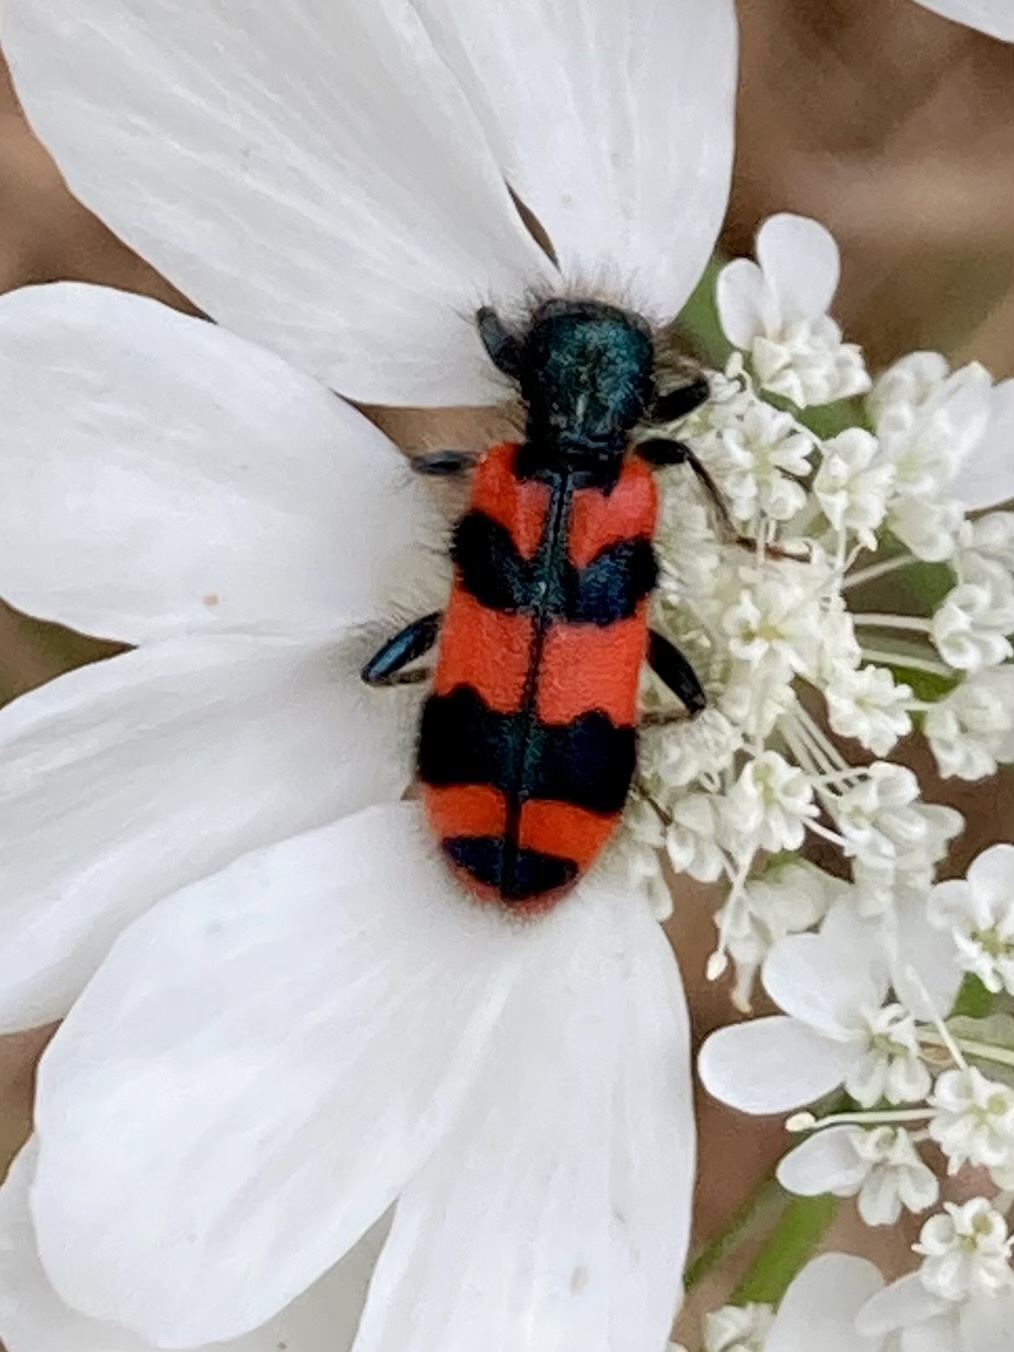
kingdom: Animalia
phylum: Arthropoda
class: Insecta
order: Coleoptera
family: Cleridae
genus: Trichodes
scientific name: Trichodes alvearius
